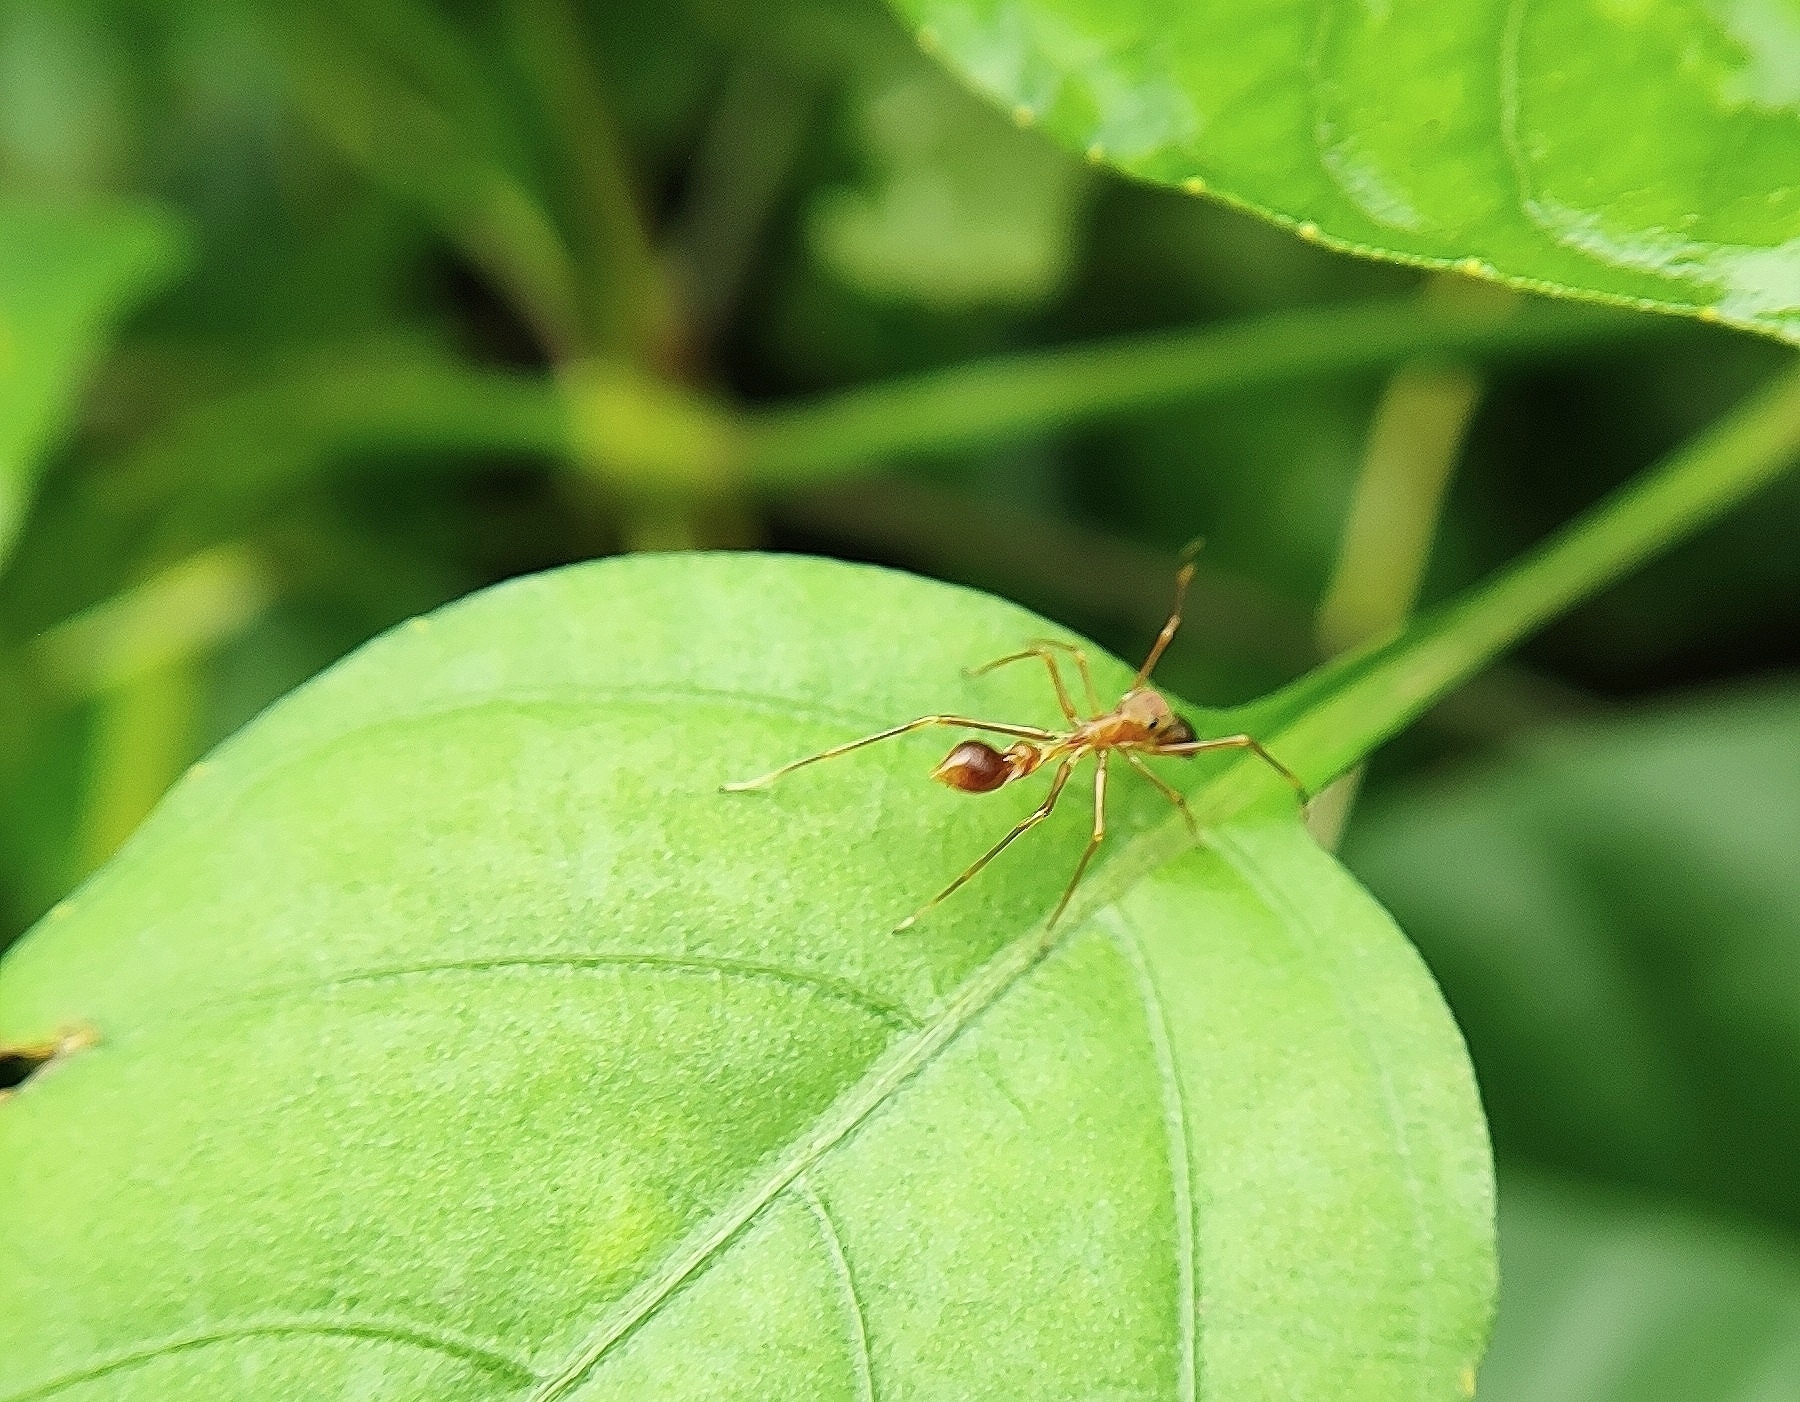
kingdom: Animalia
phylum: Arthropoda
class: Arachnida
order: Araneae
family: Salticidae
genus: Myrmaplata
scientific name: Myrmaplata plataleoides
